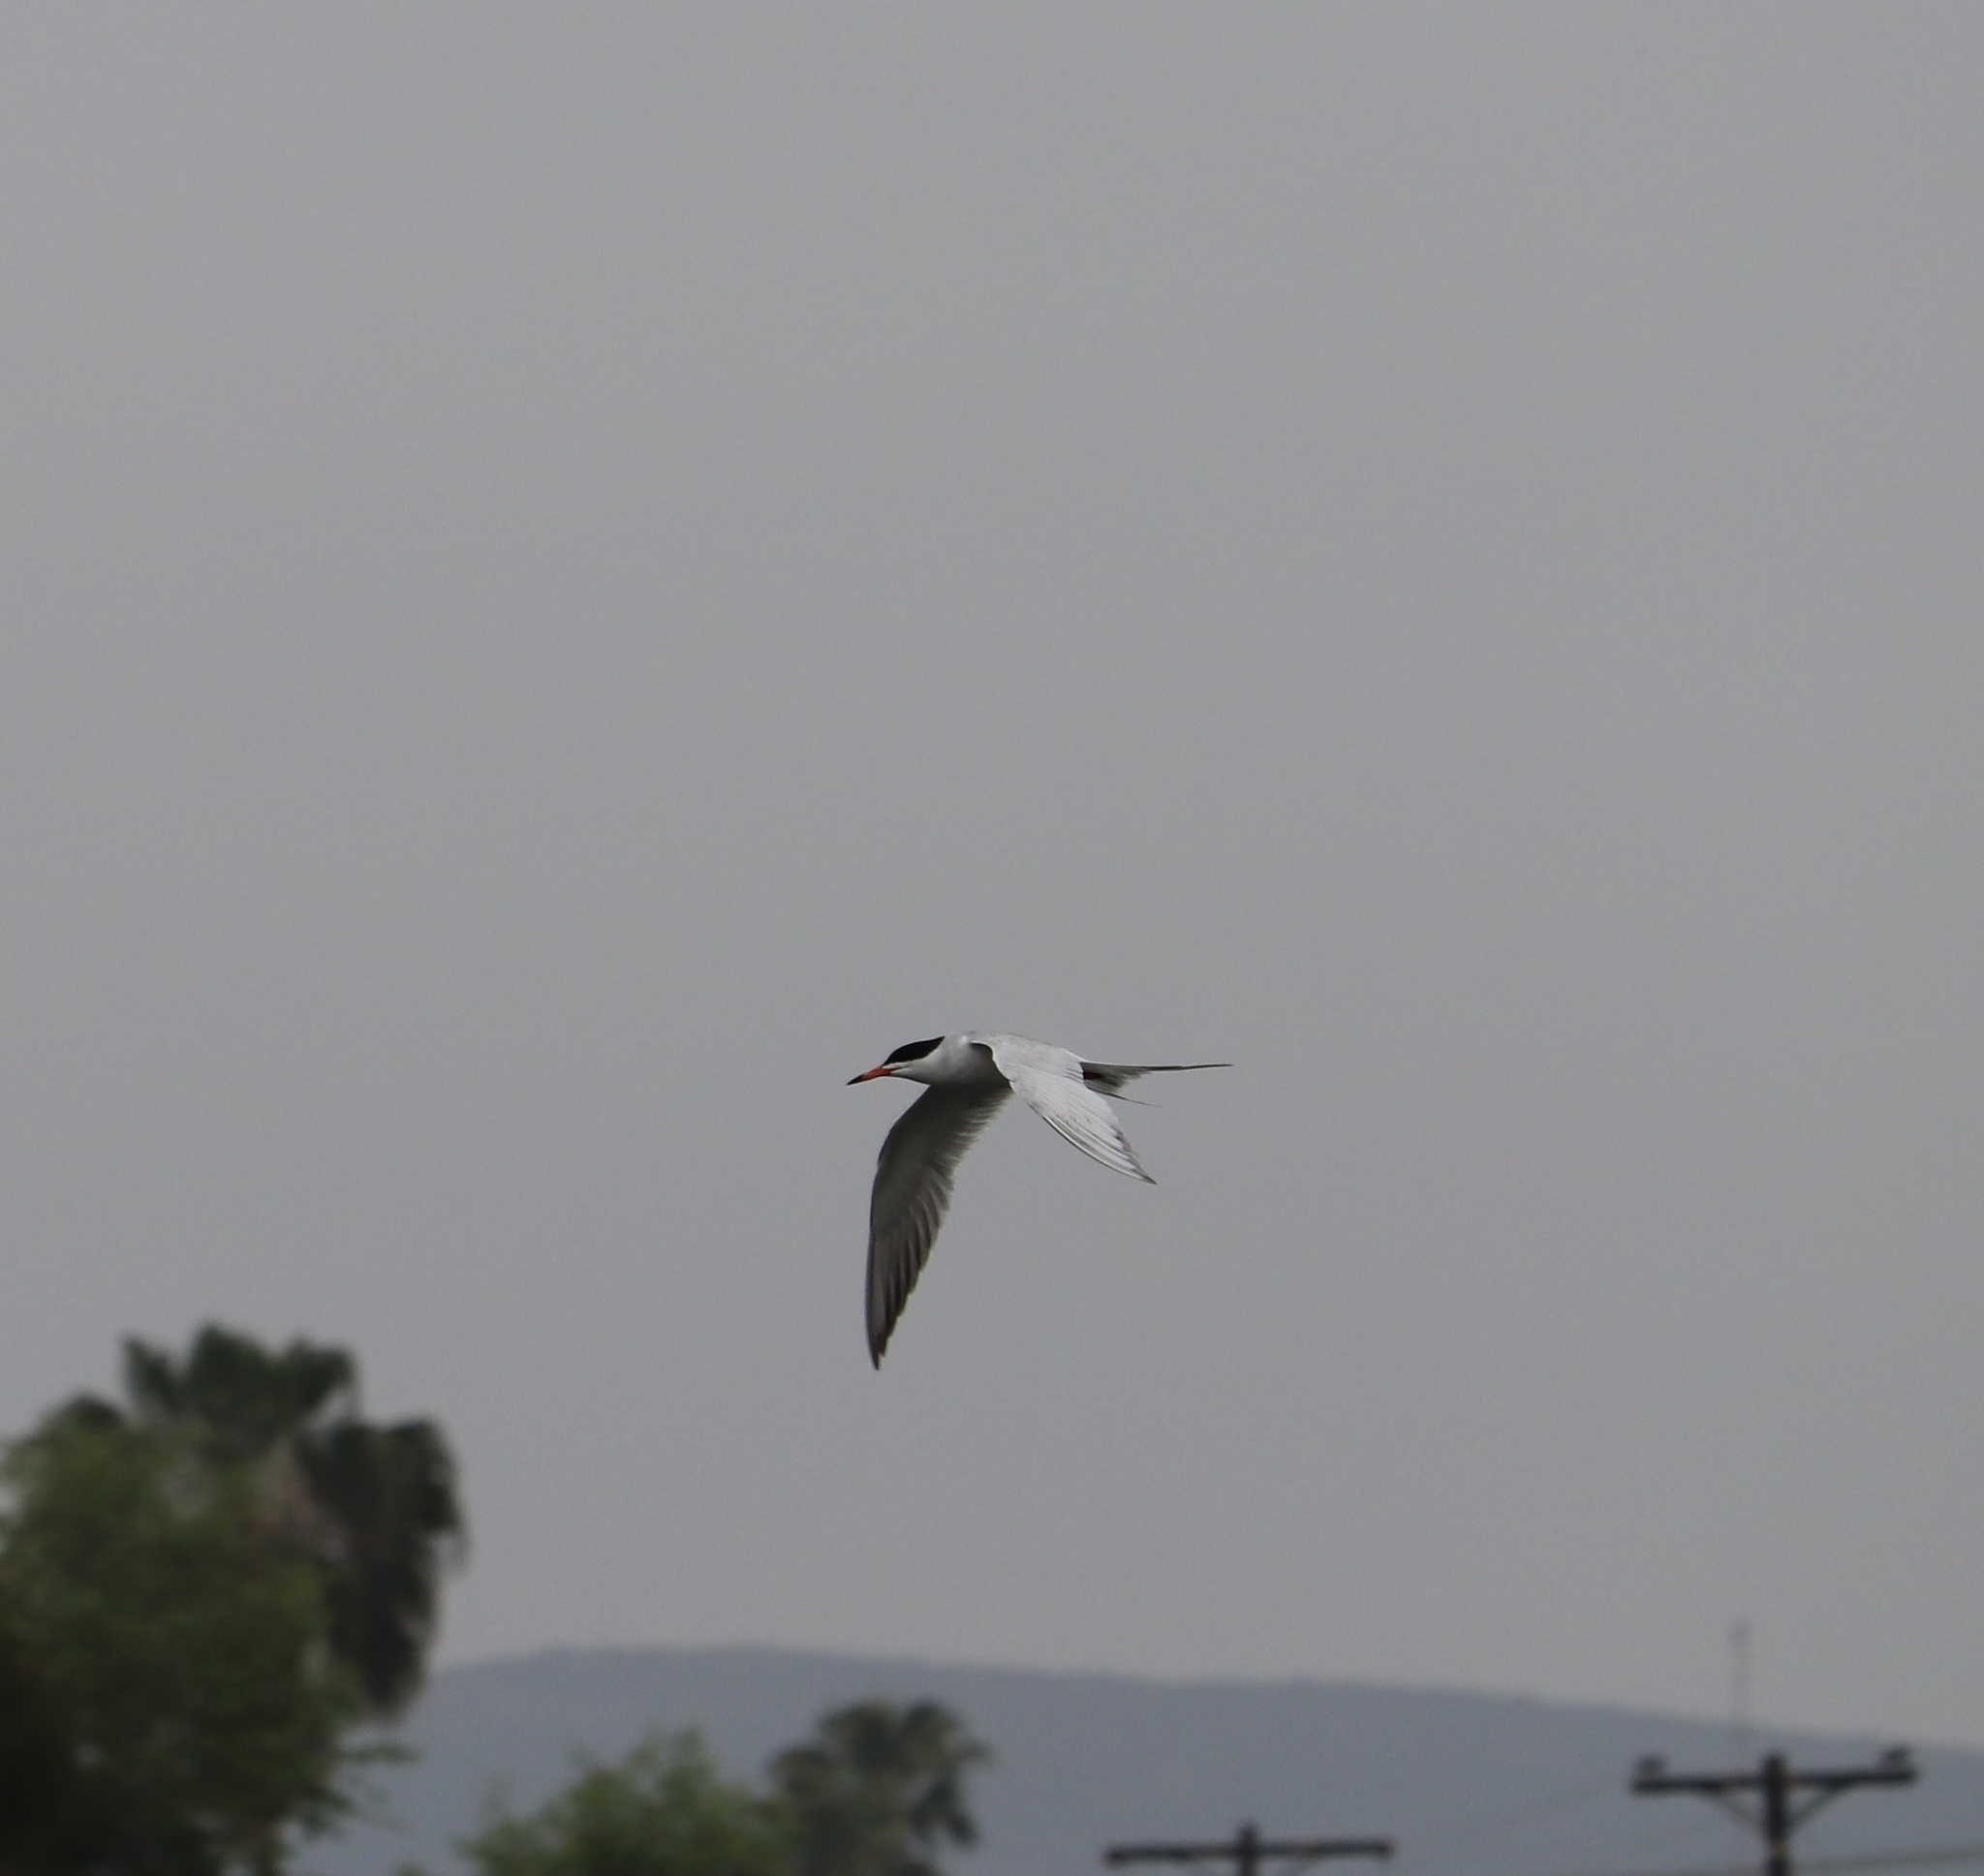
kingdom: Animalia
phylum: Chordata
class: Aves
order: Charadriiformes
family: Laridae
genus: Sterna
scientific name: Sterna forsteri
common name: Forster's tern
